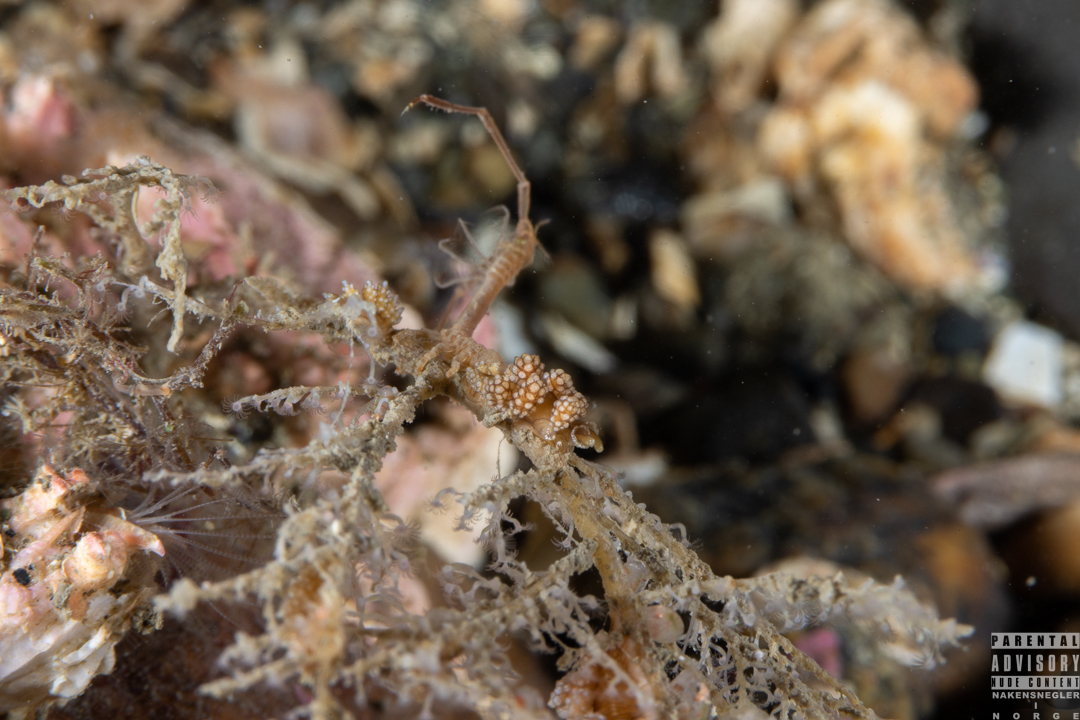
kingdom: Animalia
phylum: Mollusca
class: Gastropoda
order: Nudibranchia
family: Dotidae
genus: Doto
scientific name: Doto fragilis
